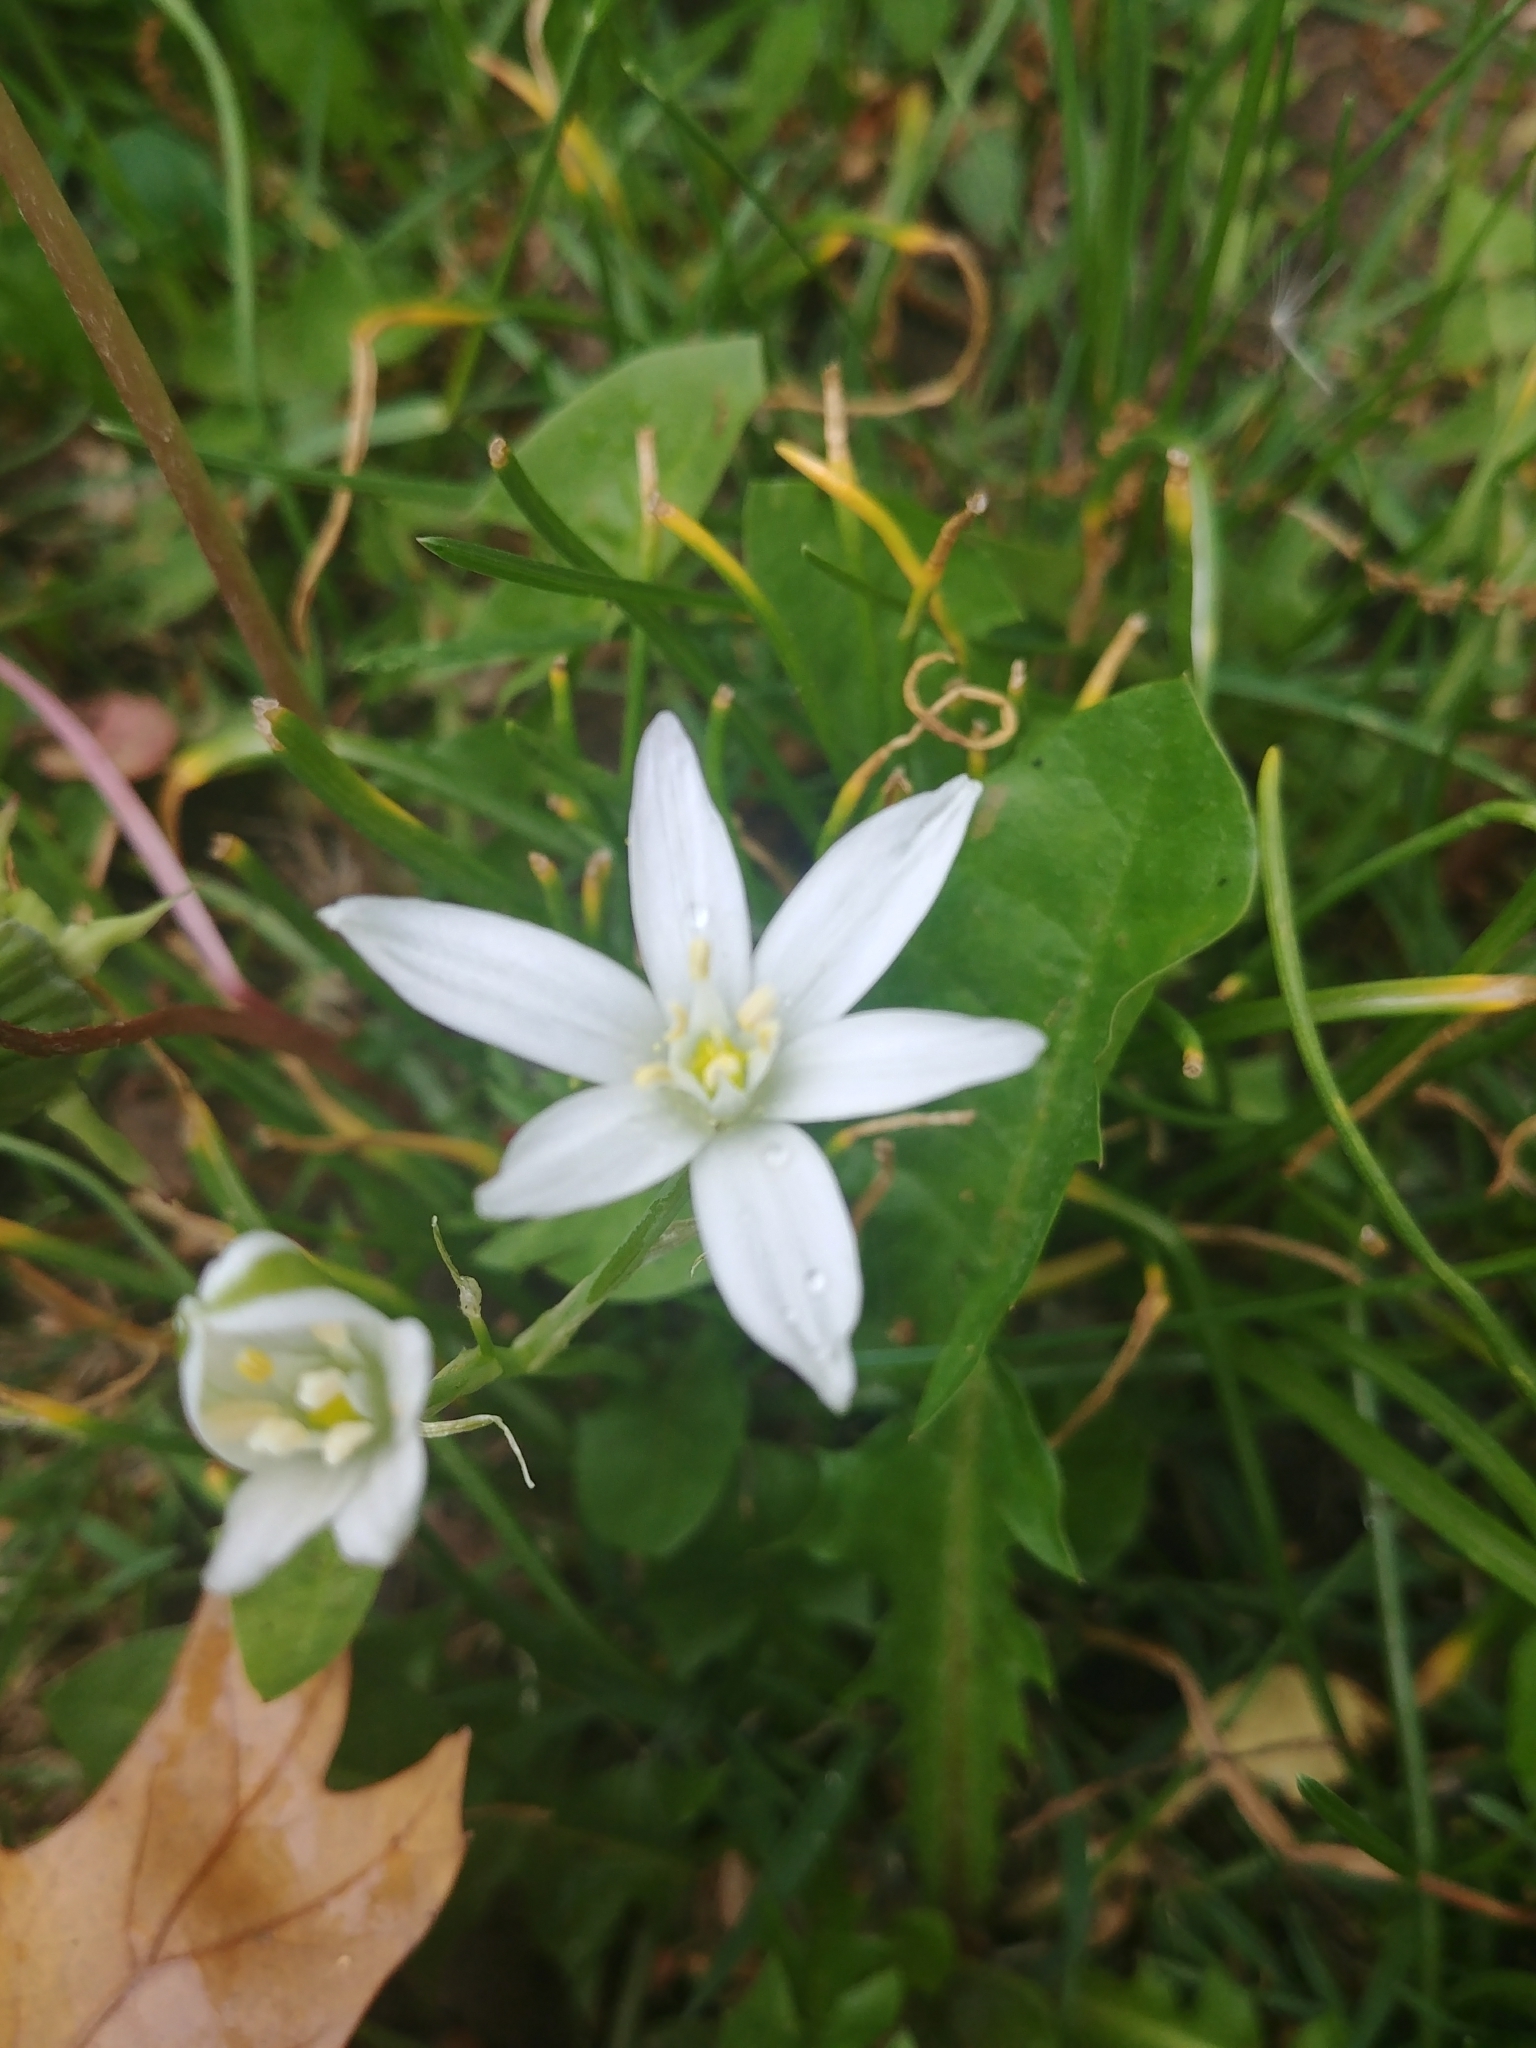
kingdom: Plantae
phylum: Tracheophyta
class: Liliopsida
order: Asparagales
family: Asparagaceae
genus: Ornithogalum
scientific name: Ornithogalum umbellatum
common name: Garden star-of-bethlehem
